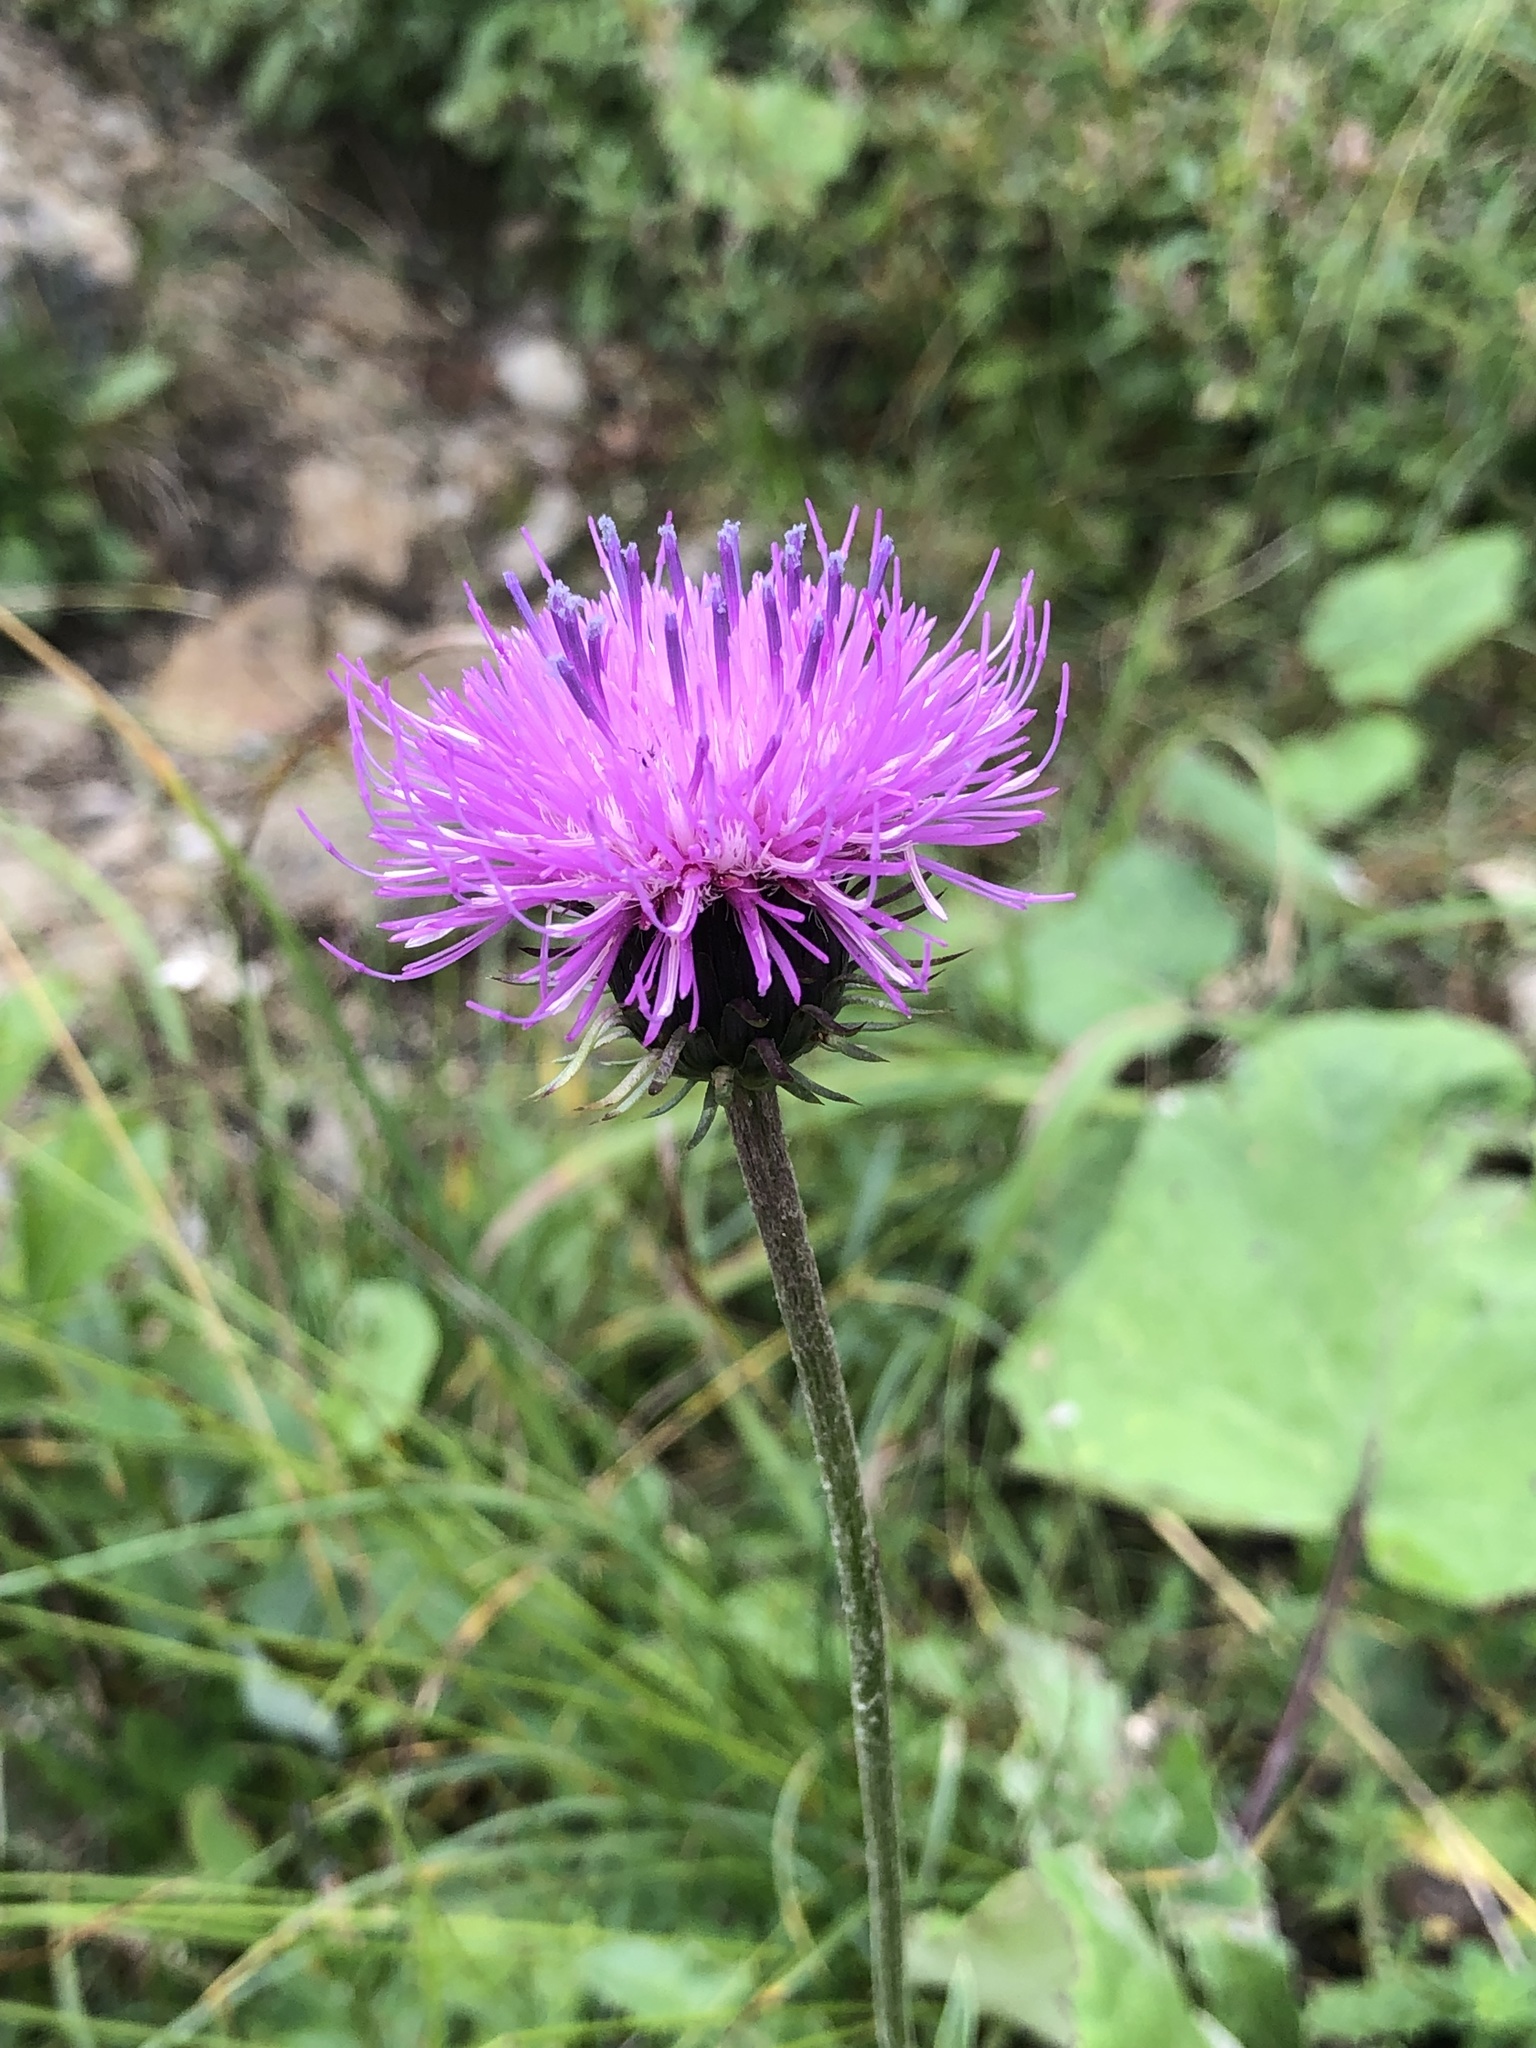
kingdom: Plantae
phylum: Tracheophyta
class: Magnoliopsida
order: Asterales
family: Asteraceae
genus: Carduus
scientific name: Carduus defloratus
